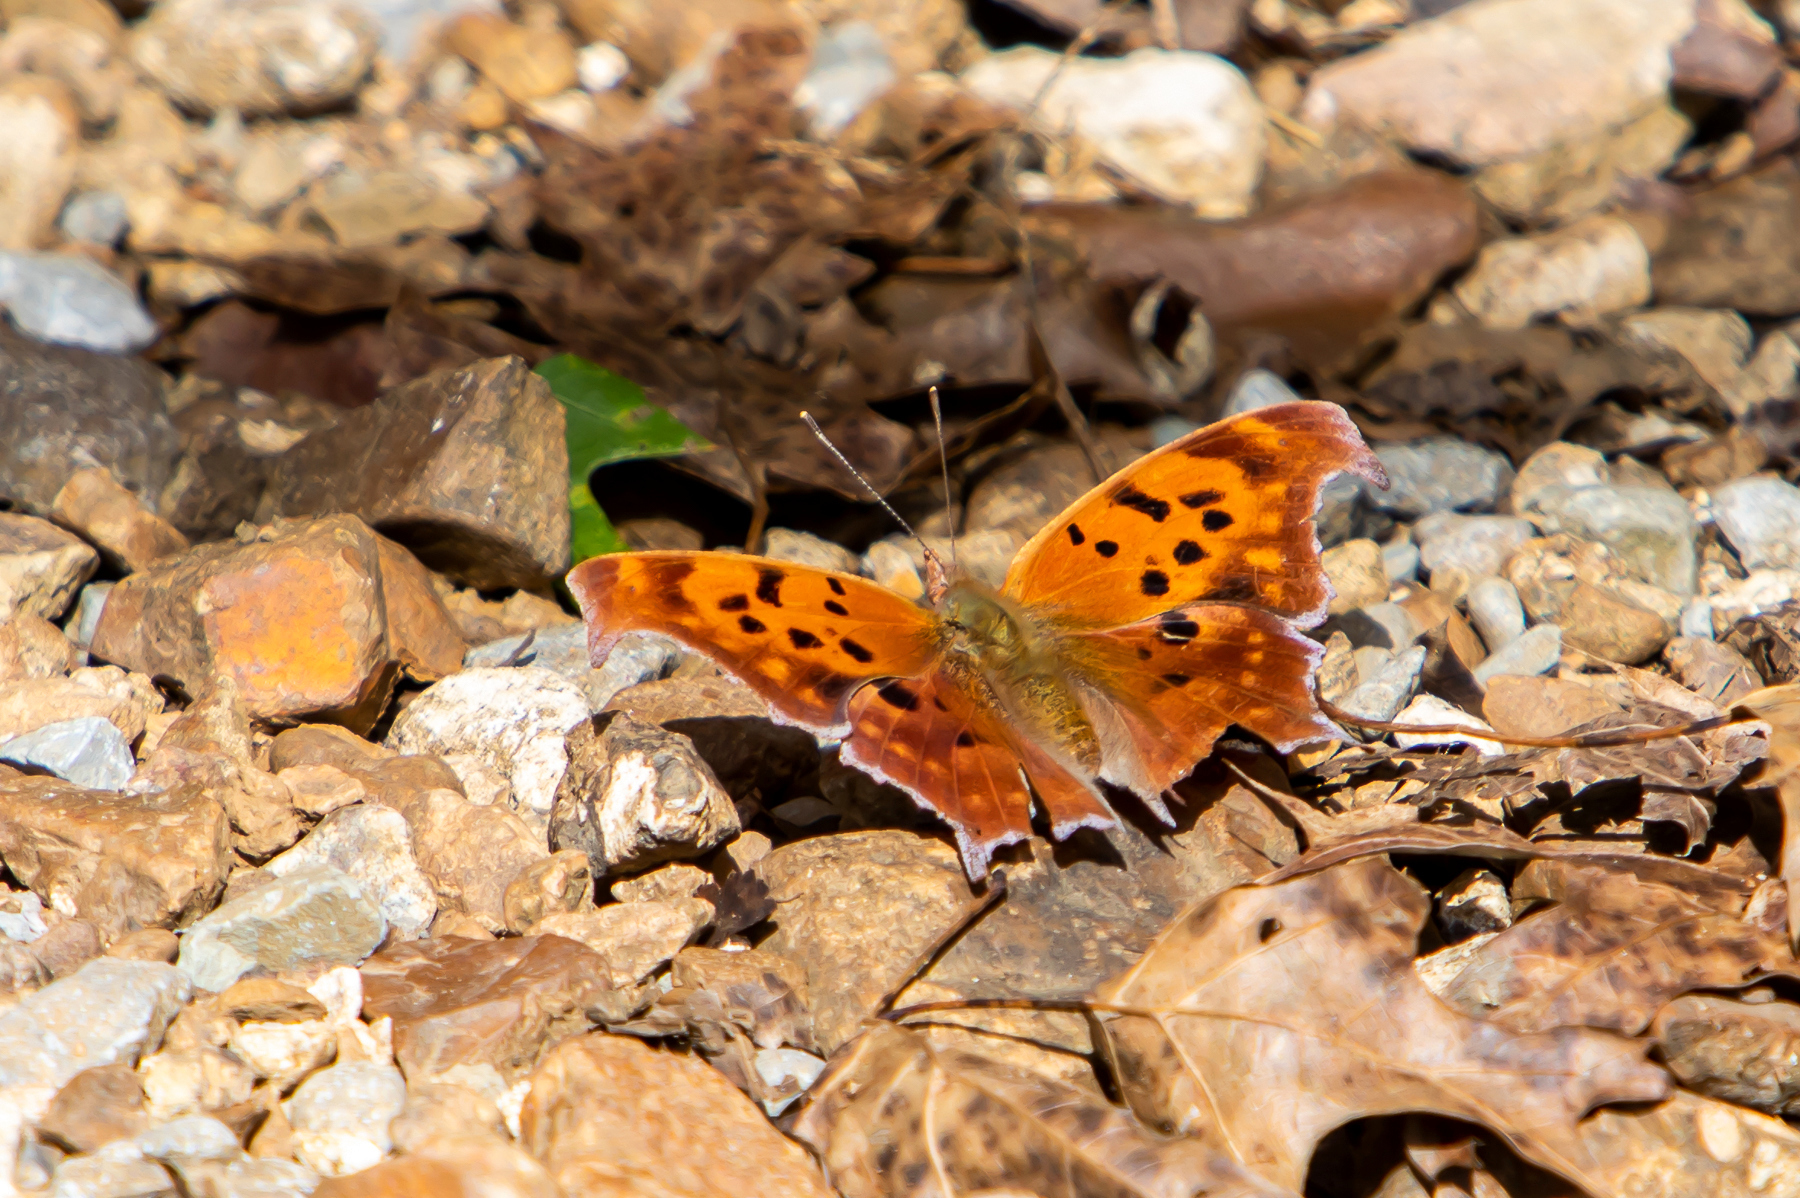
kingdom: Animalia
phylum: Arthropoda
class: Insecta
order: Lepidoptera
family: Nymphalidae
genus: Polygonia
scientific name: Polygonia interrogationis
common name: Question mark
